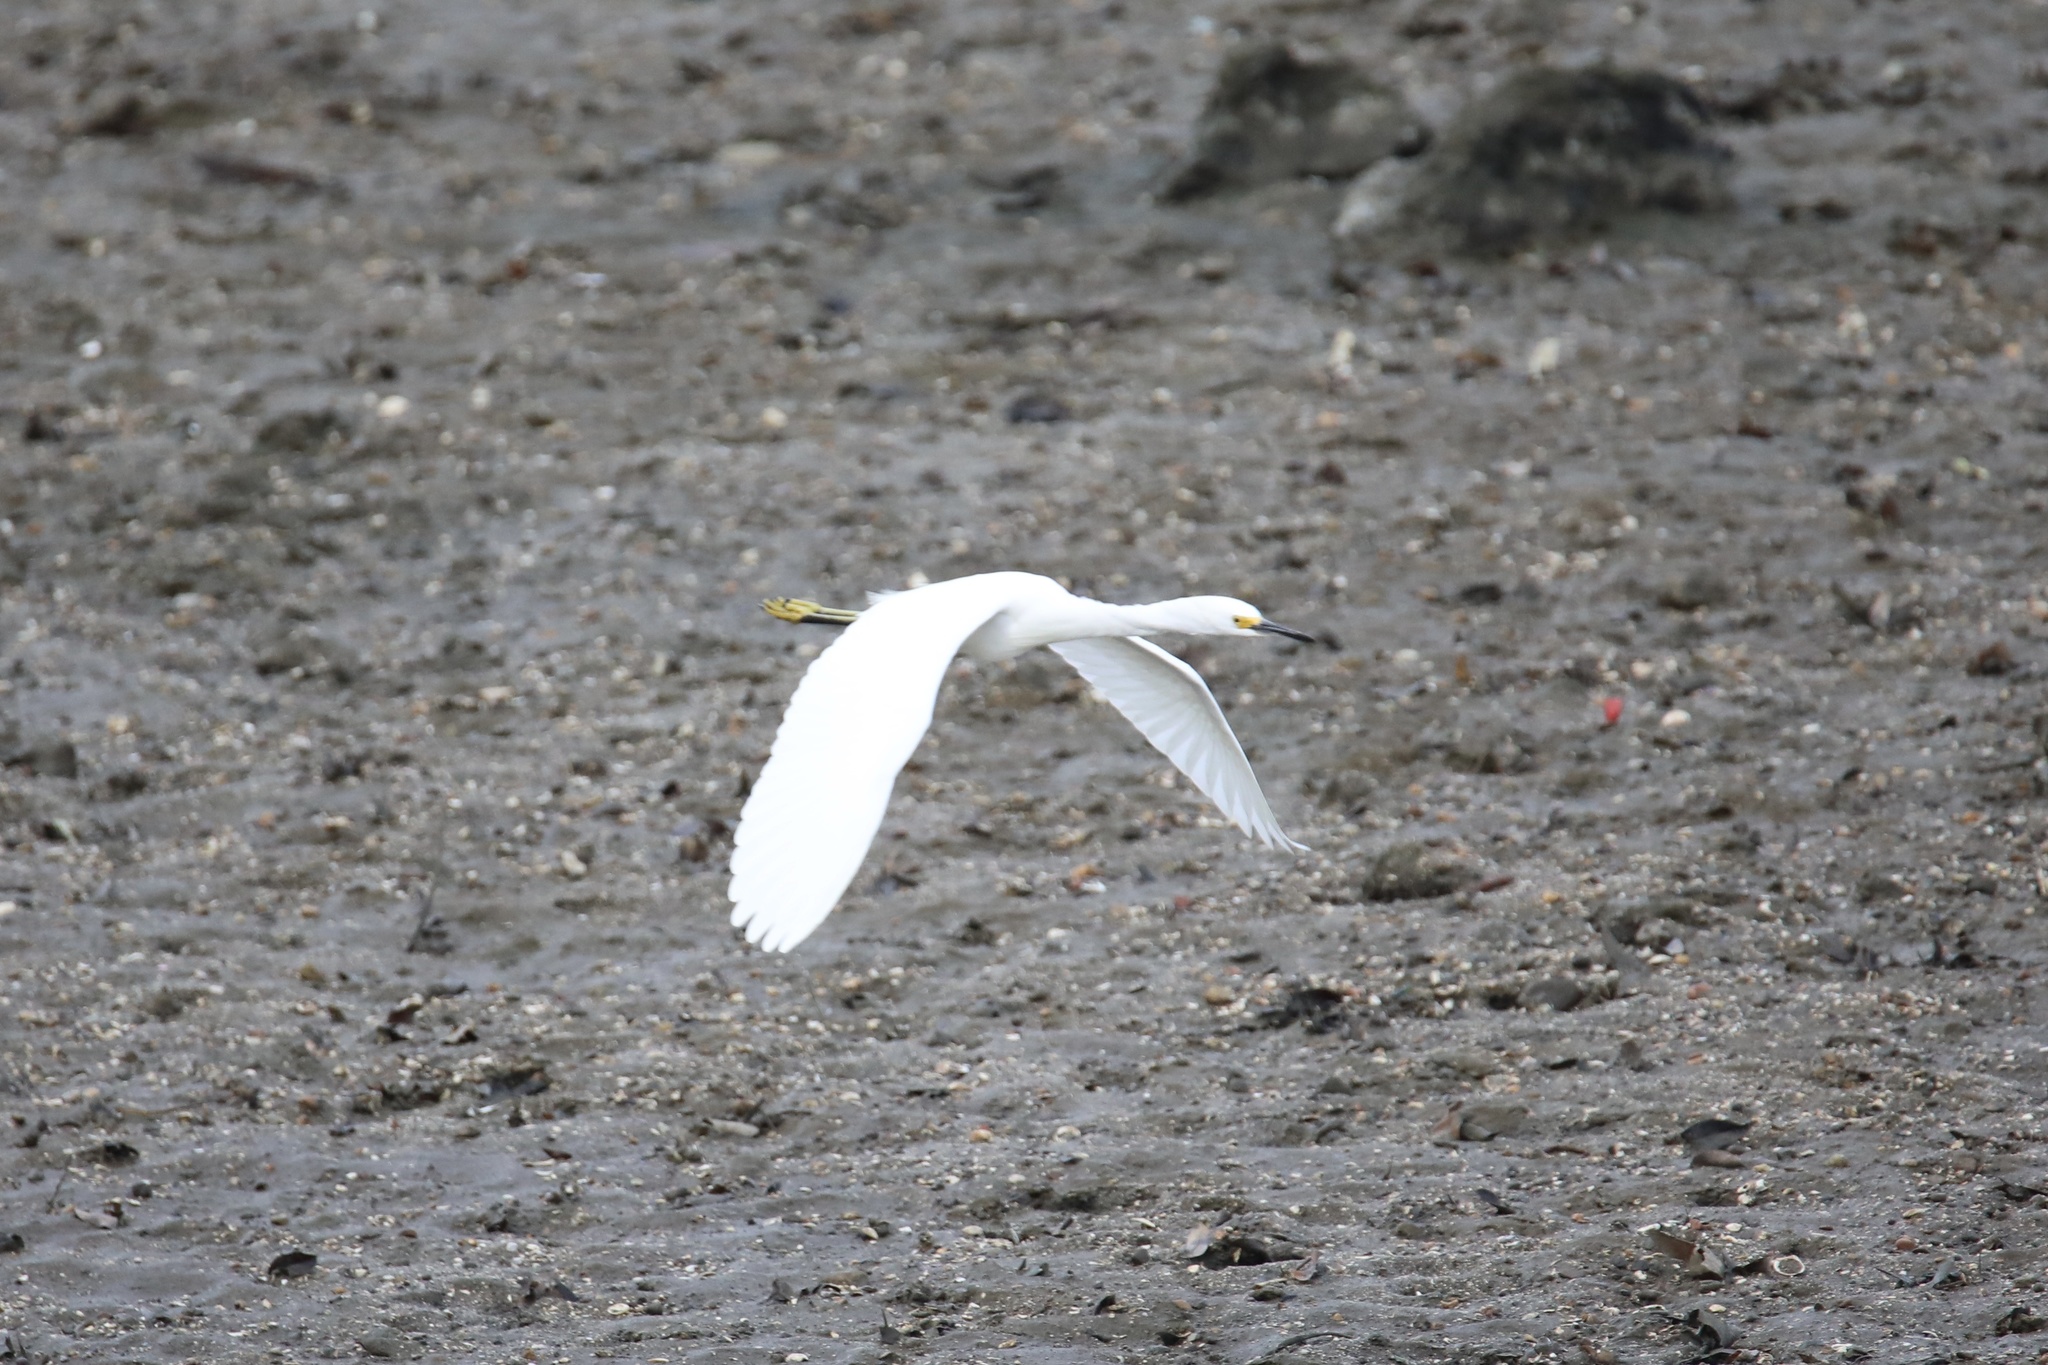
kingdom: Animalia
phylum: Chordata
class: Aves
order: Pelecaniformes
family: Ardeidae
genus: Egretta
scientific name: Egretta thula
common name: Snowy egret
